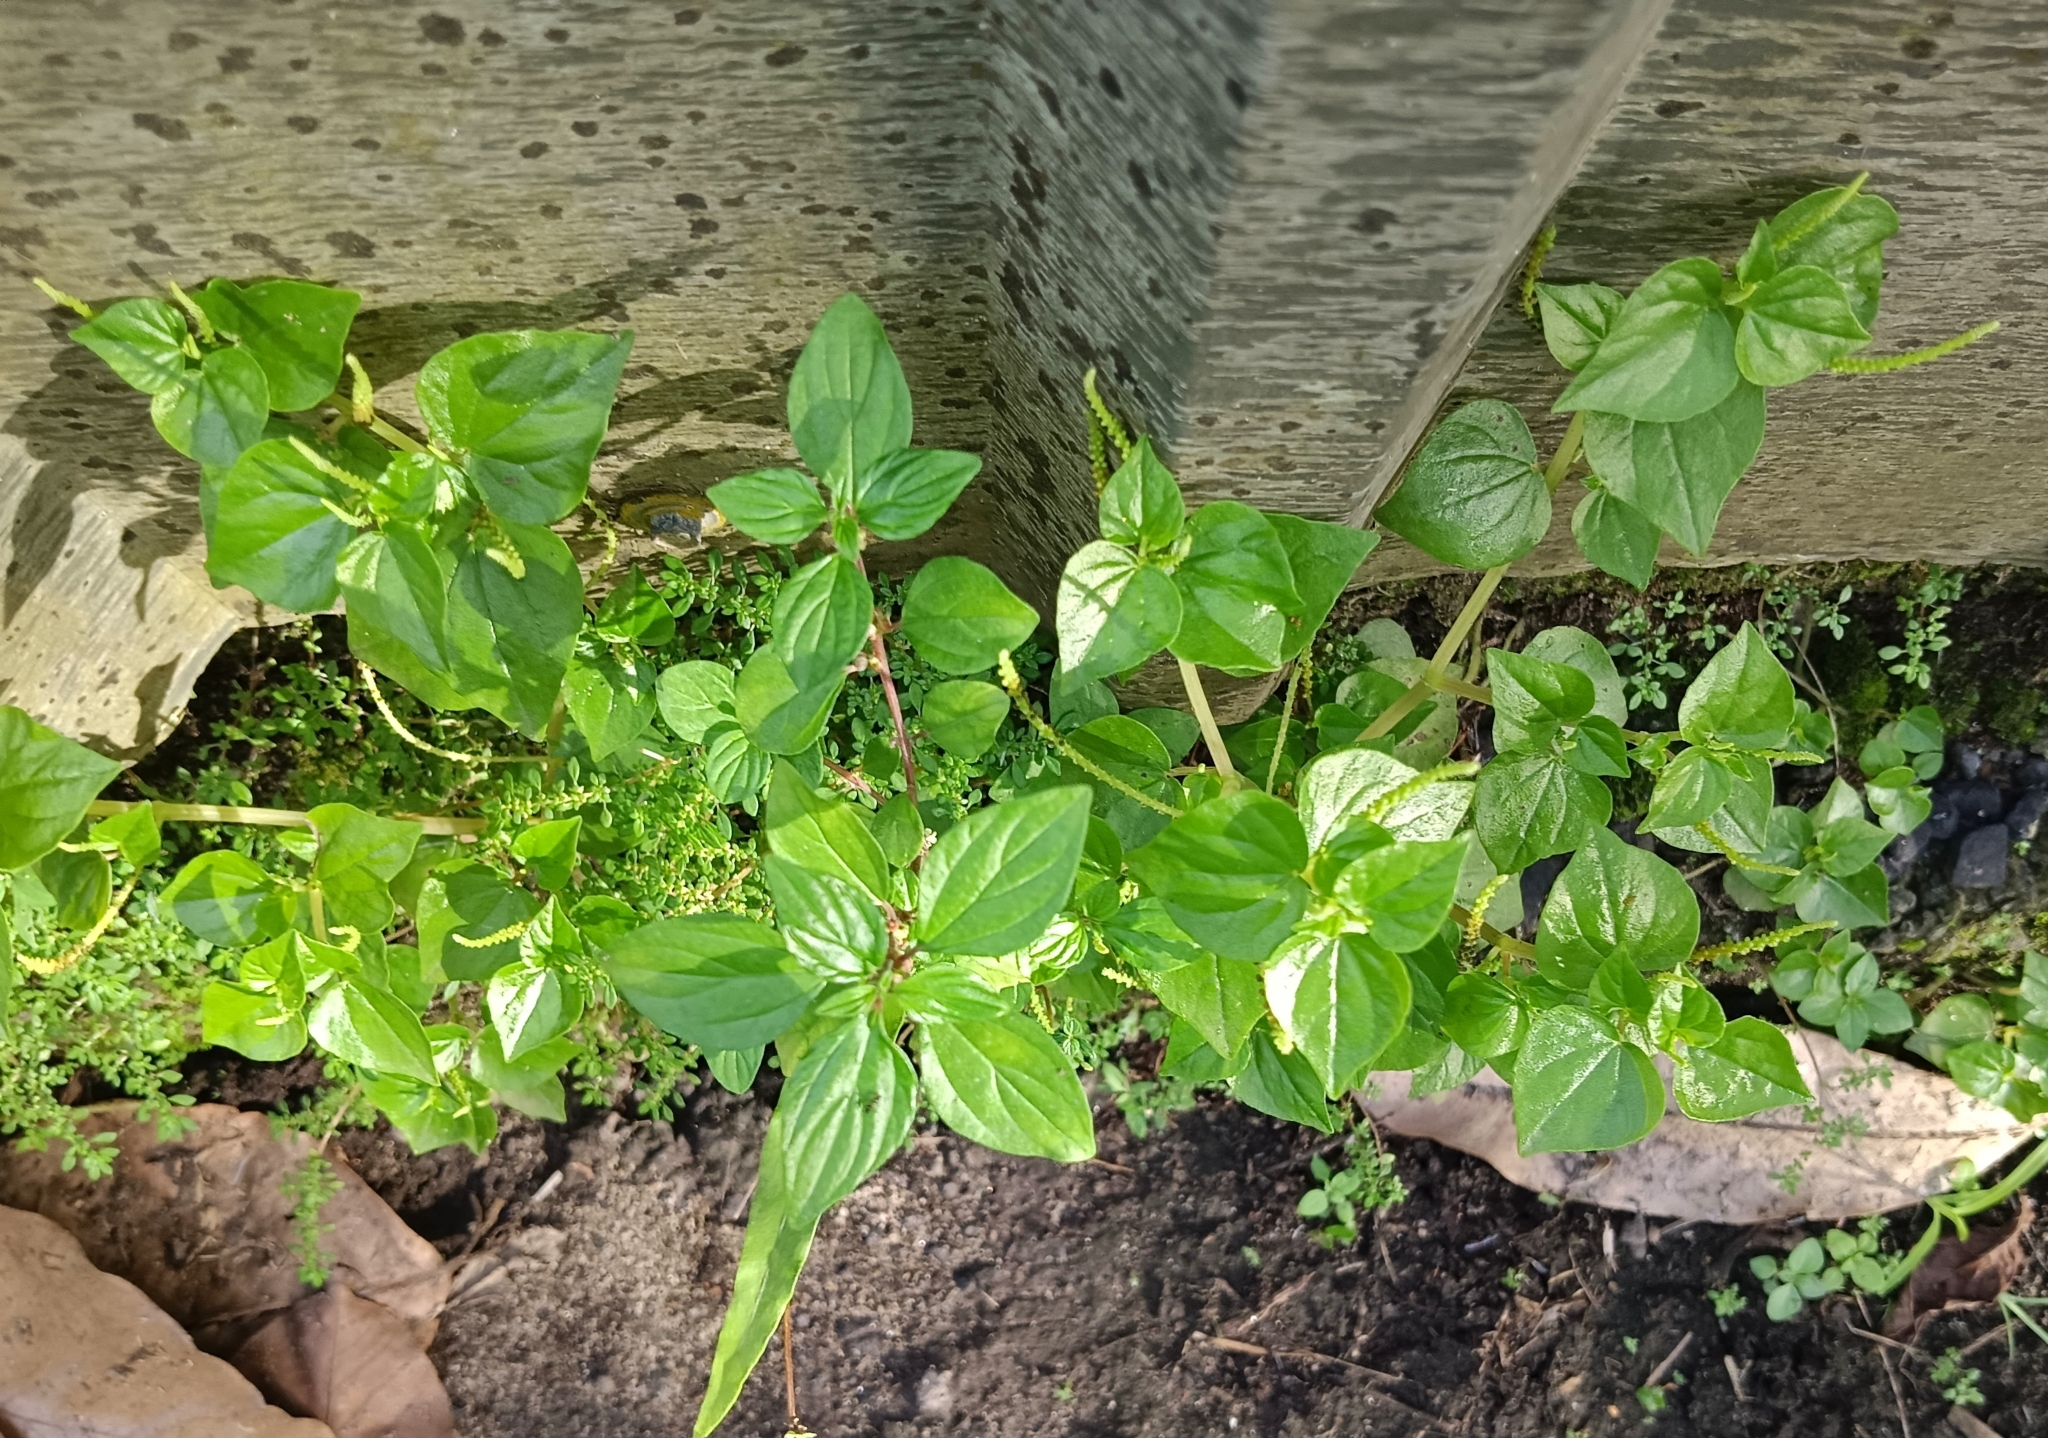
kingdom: Plantae
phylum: Tracheophyta
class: Magnoliopsida
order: Piperales
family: Piperaceae
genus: Peperomia
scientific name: Peperomia pellucida
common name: Man to man
